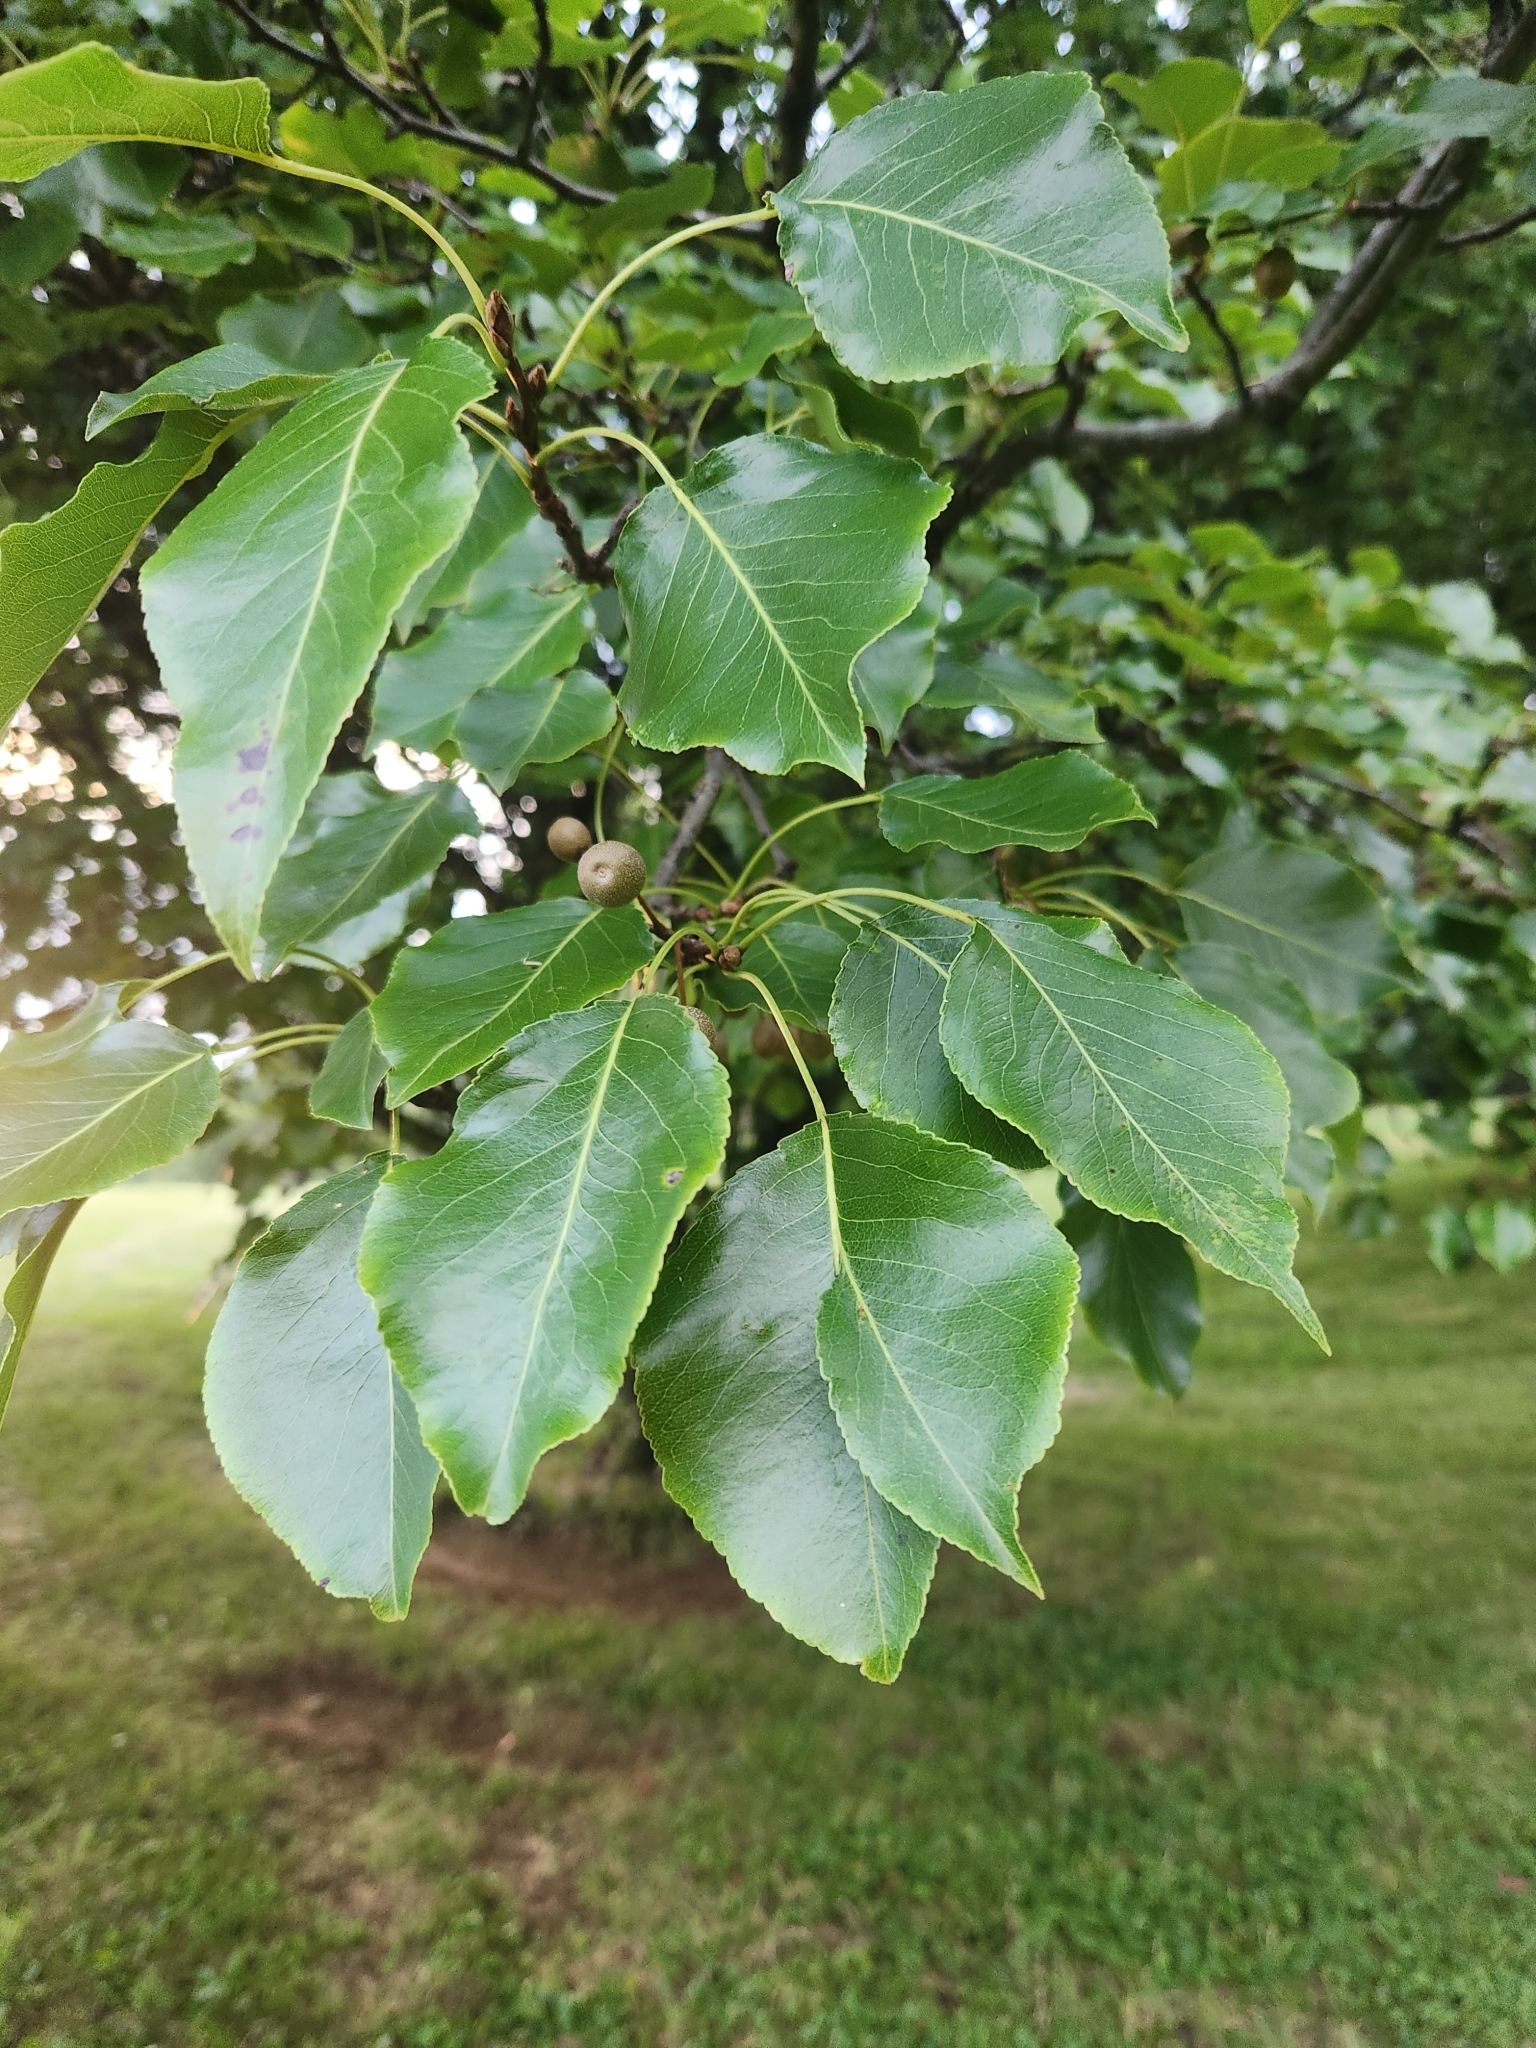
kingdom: Plantae
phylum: Tracheophyta
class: Magnoliopsida
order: Rosales
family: Rosaceae
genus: Pyrus
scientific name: Pyrus calleryana
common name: Callery pear
